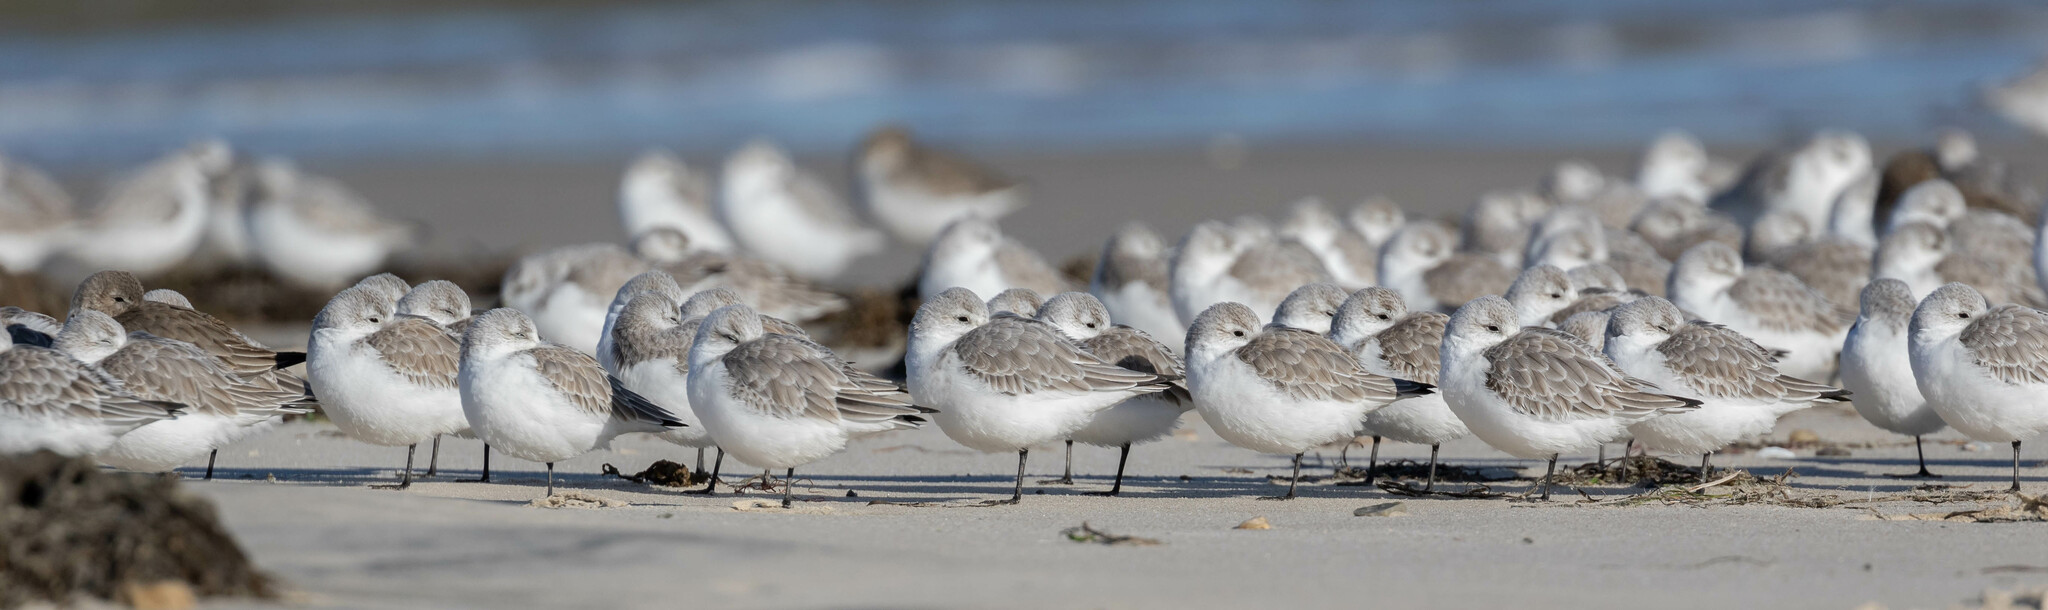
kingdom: Animalia
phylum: Chordata
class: Aves
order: Charadriiformes
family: Scolopacidae
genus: Calidris
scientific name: Calidris alba
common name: Sanderling
